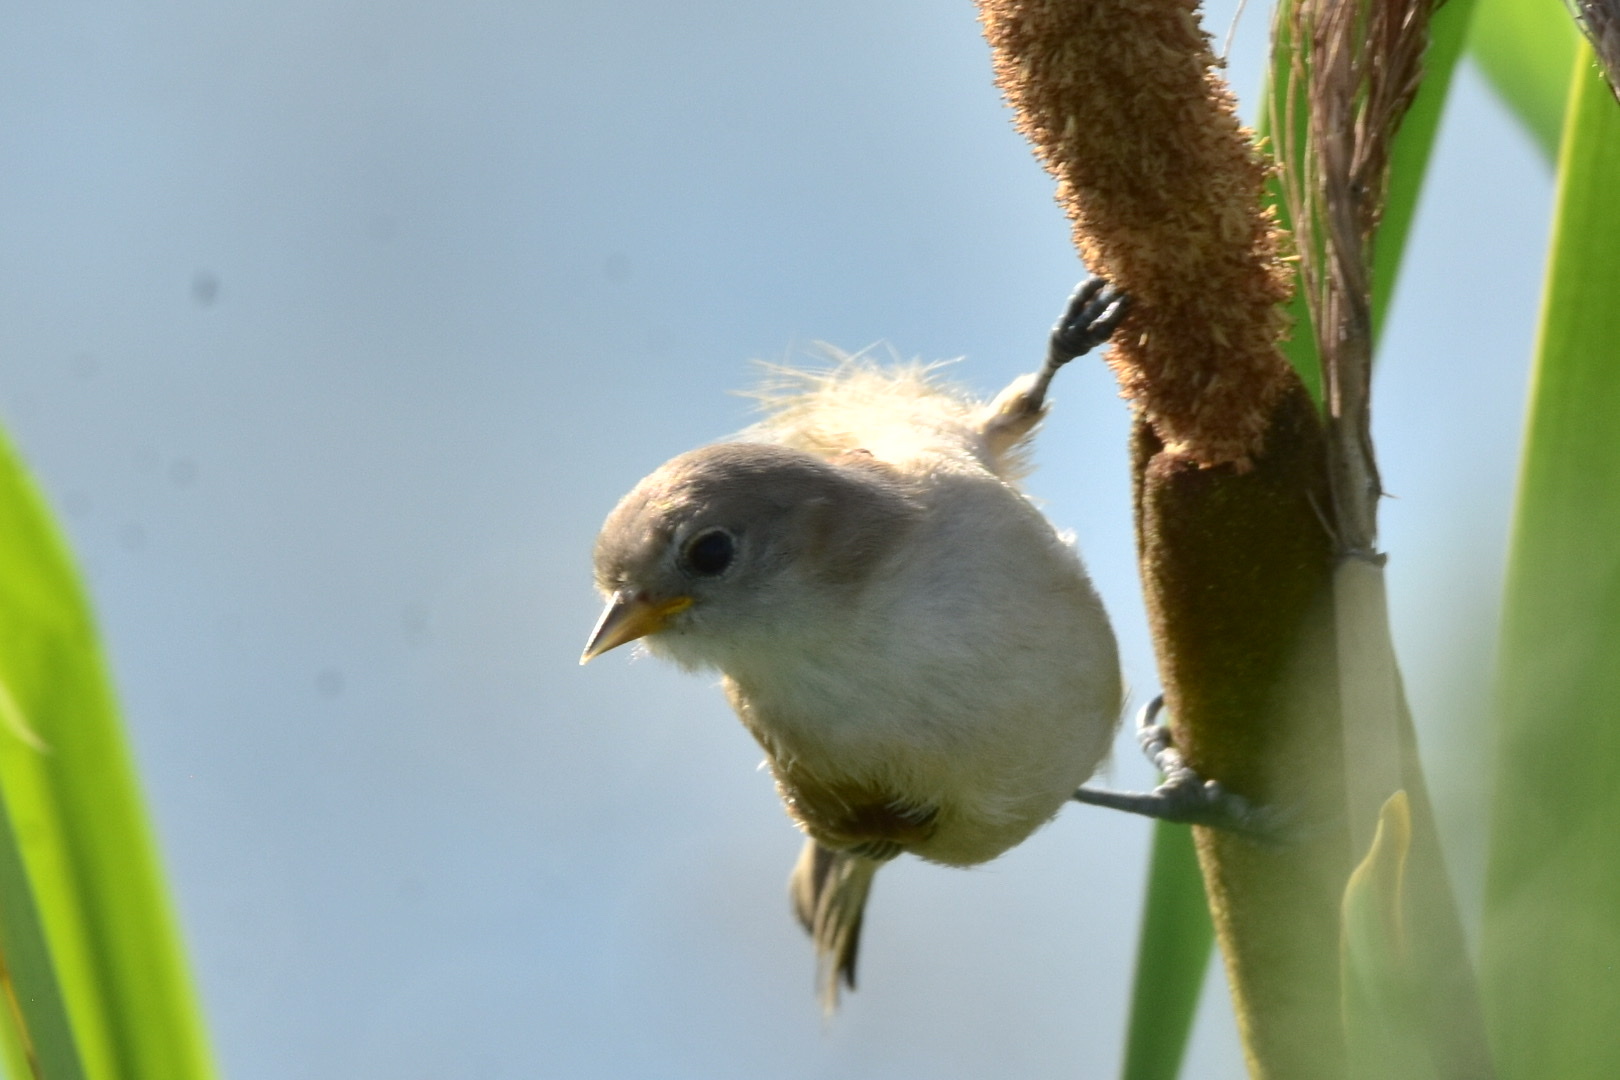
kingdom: Animalia
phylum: Chordata
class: Aves
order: Passeriformes
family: Remizidae
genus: Remiz
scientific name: Remiz pendulinus
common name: Eurasian penduline tit
